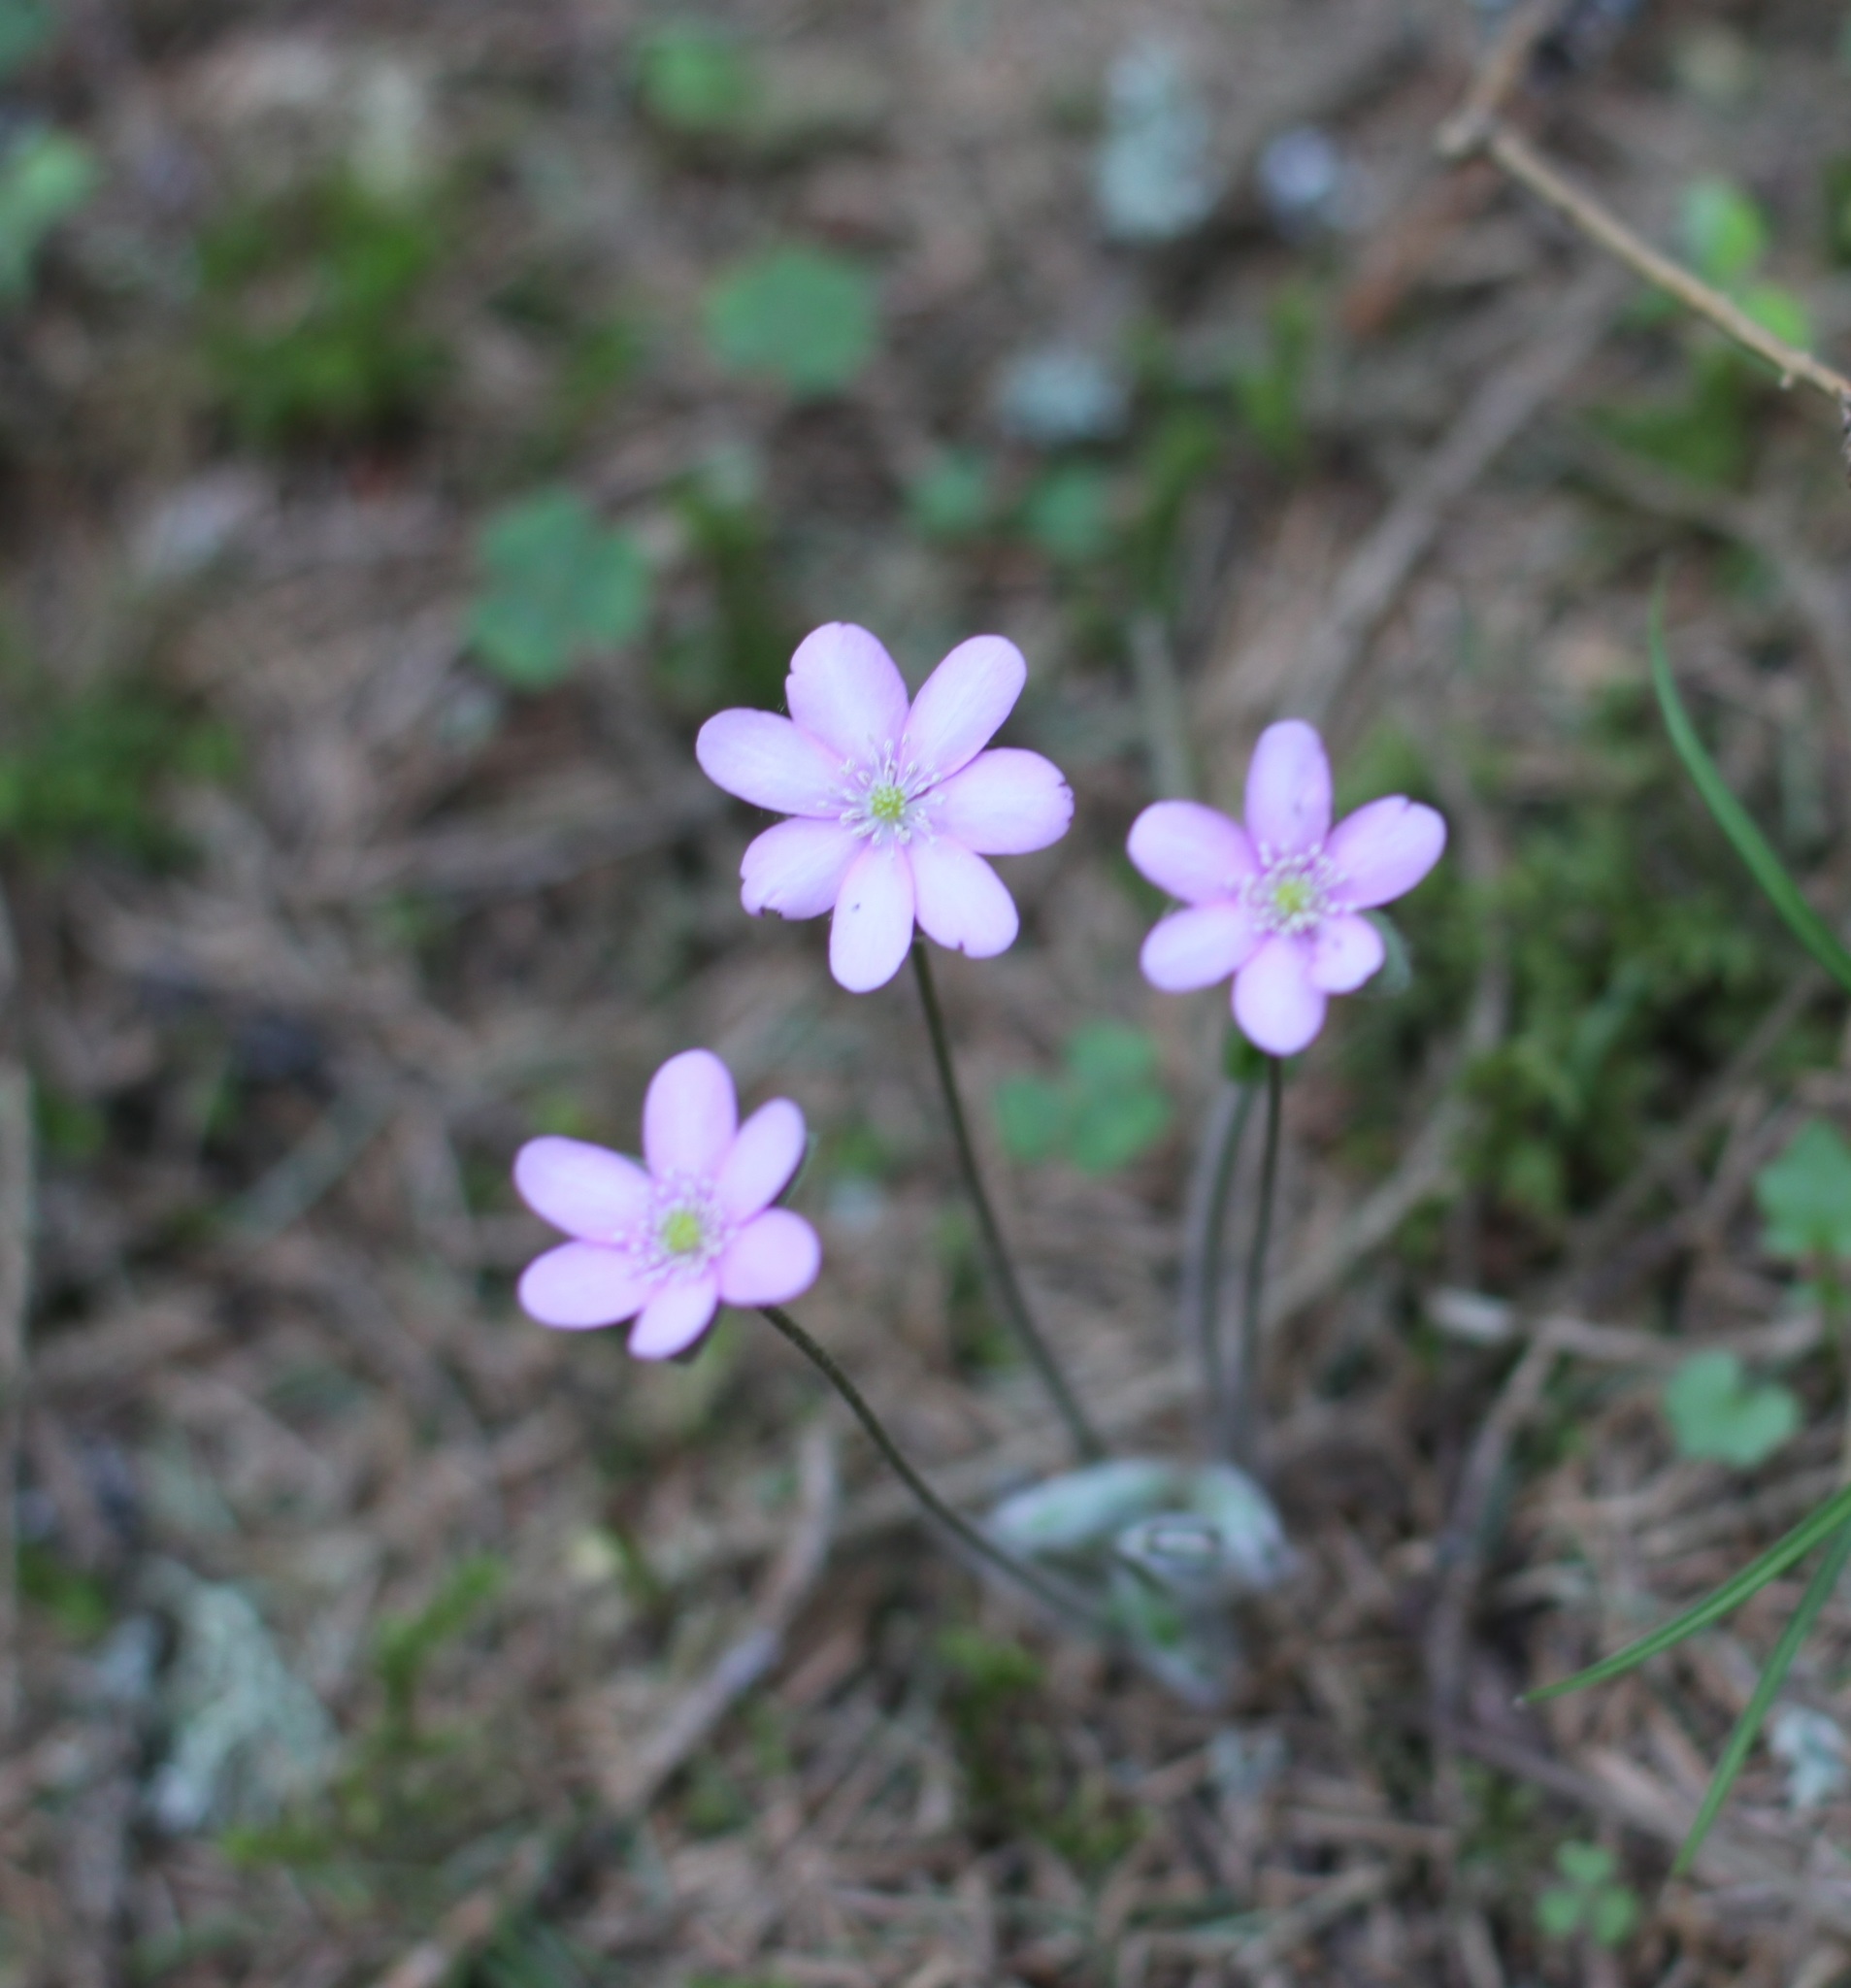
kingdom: Plantae
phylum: Tracheophyta
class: Magnoliopsida
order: Ranunculales
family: Ranunculaceae
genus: Hepatica
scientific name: Hepatica nobilis
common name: Liverleaf
